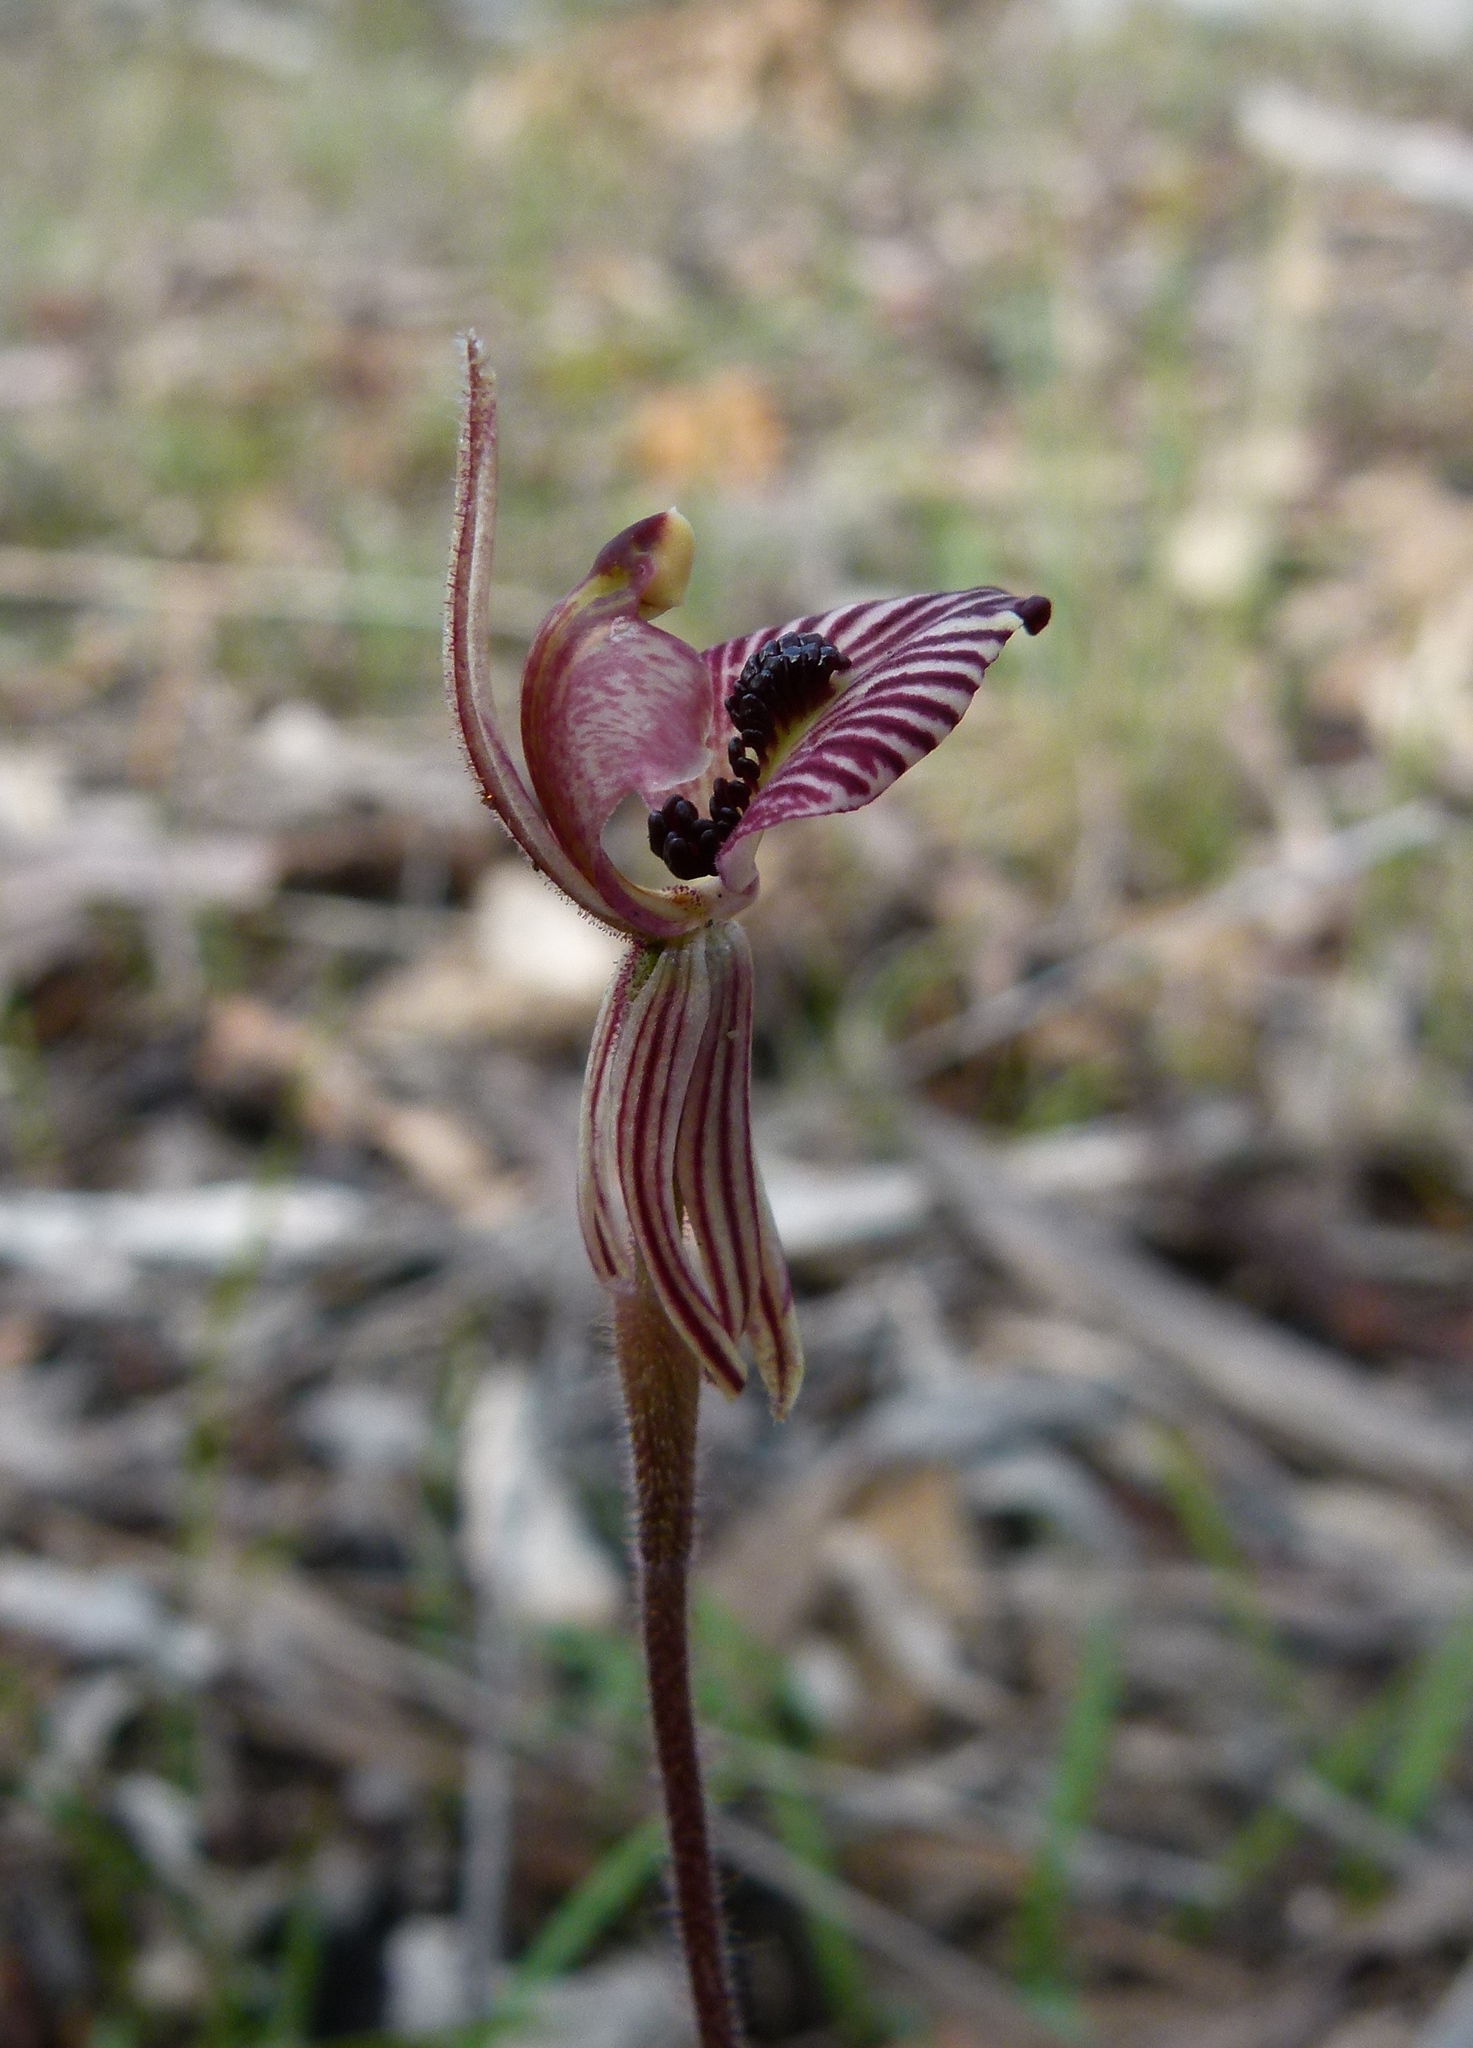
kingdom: Plantae
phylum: Tracheophyta
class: Liliopsida
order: Asparagales
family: Orchidaceae
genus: Caladenia
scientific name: Caladenia cairnsiana
